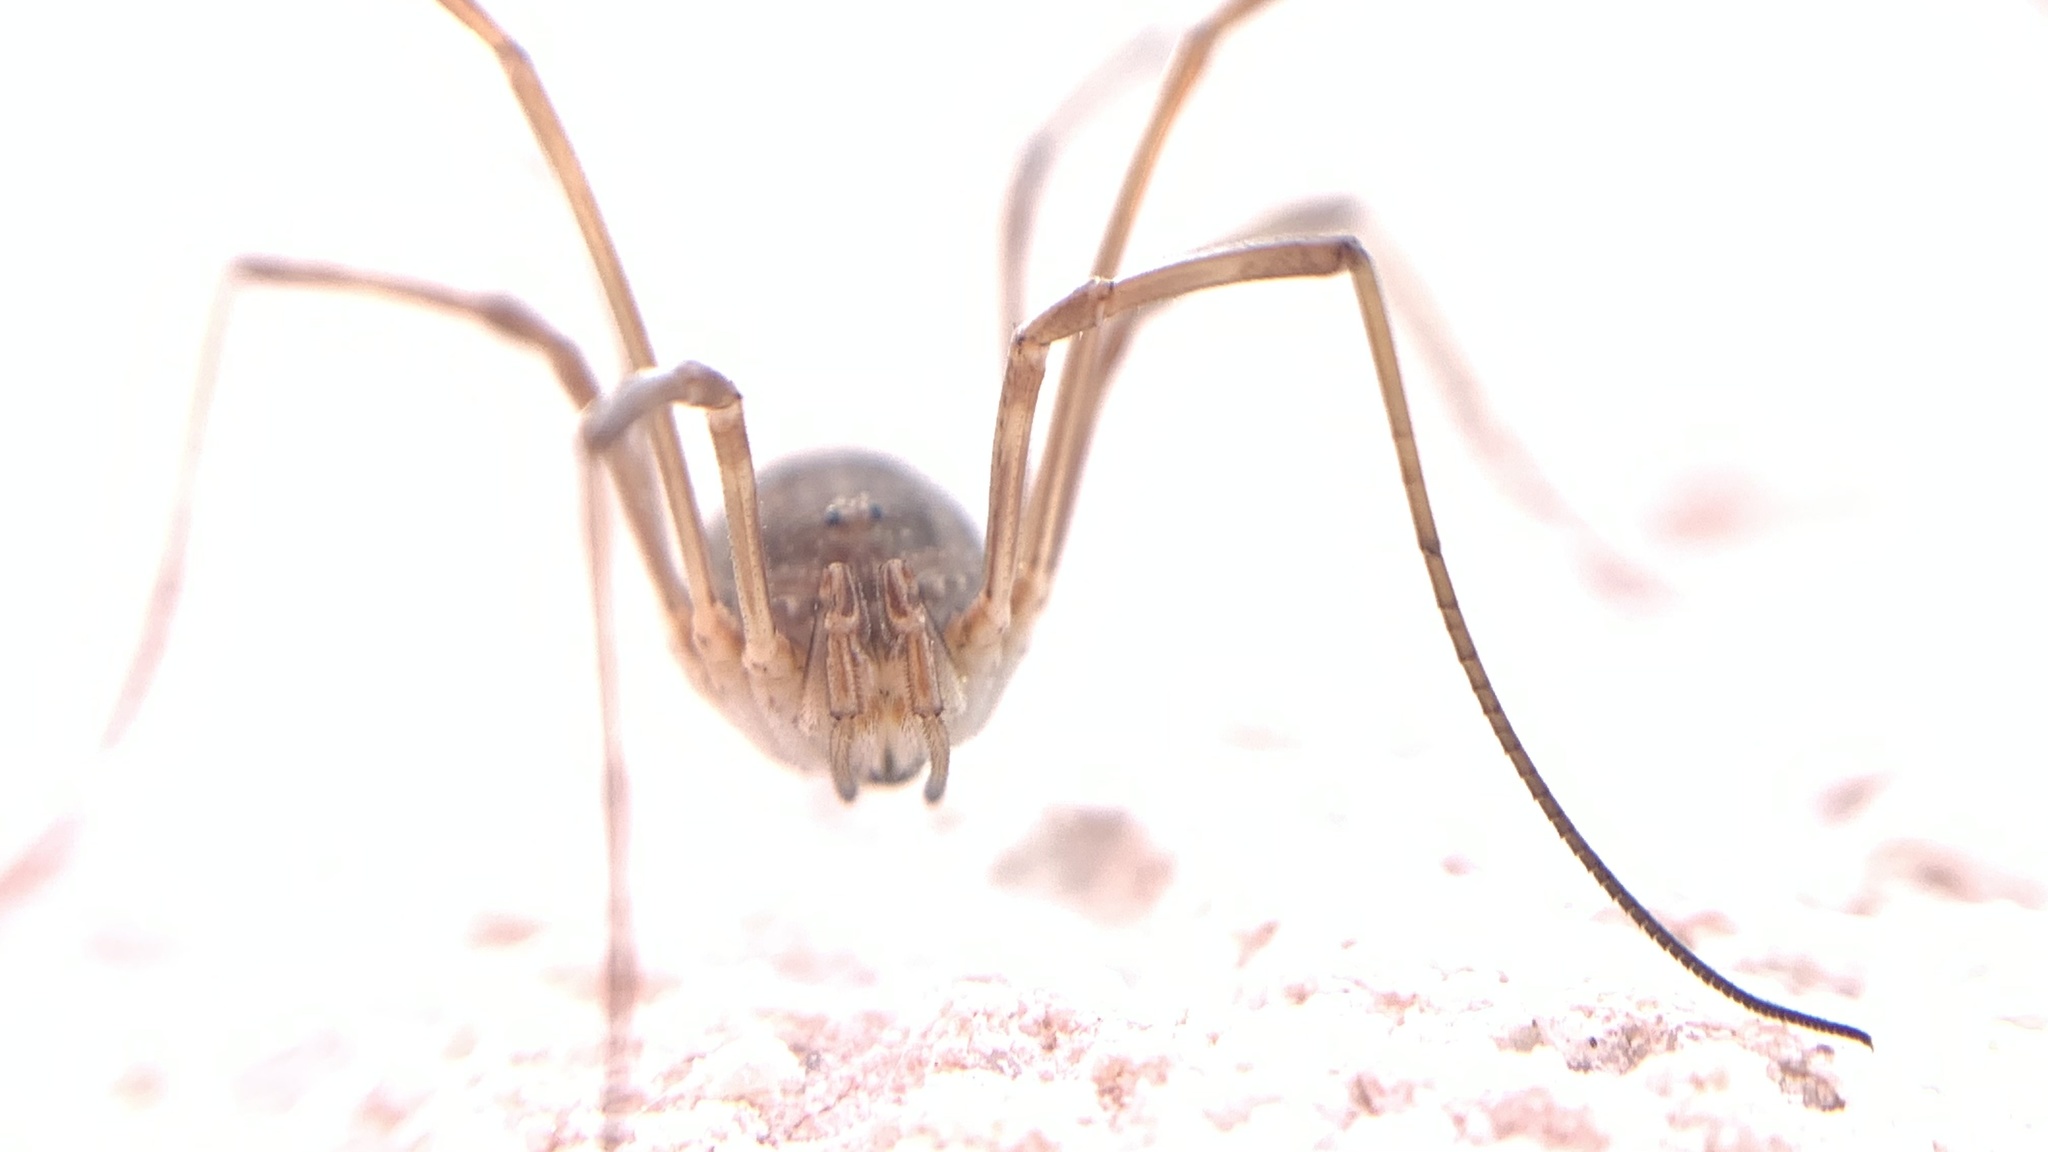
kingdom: Animalia
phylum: Arthropoda
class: Arachnida
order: Opiliones
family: Phalangiidae
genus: Phalangium
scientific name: Phalangium opilio
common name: Daddy longleg
